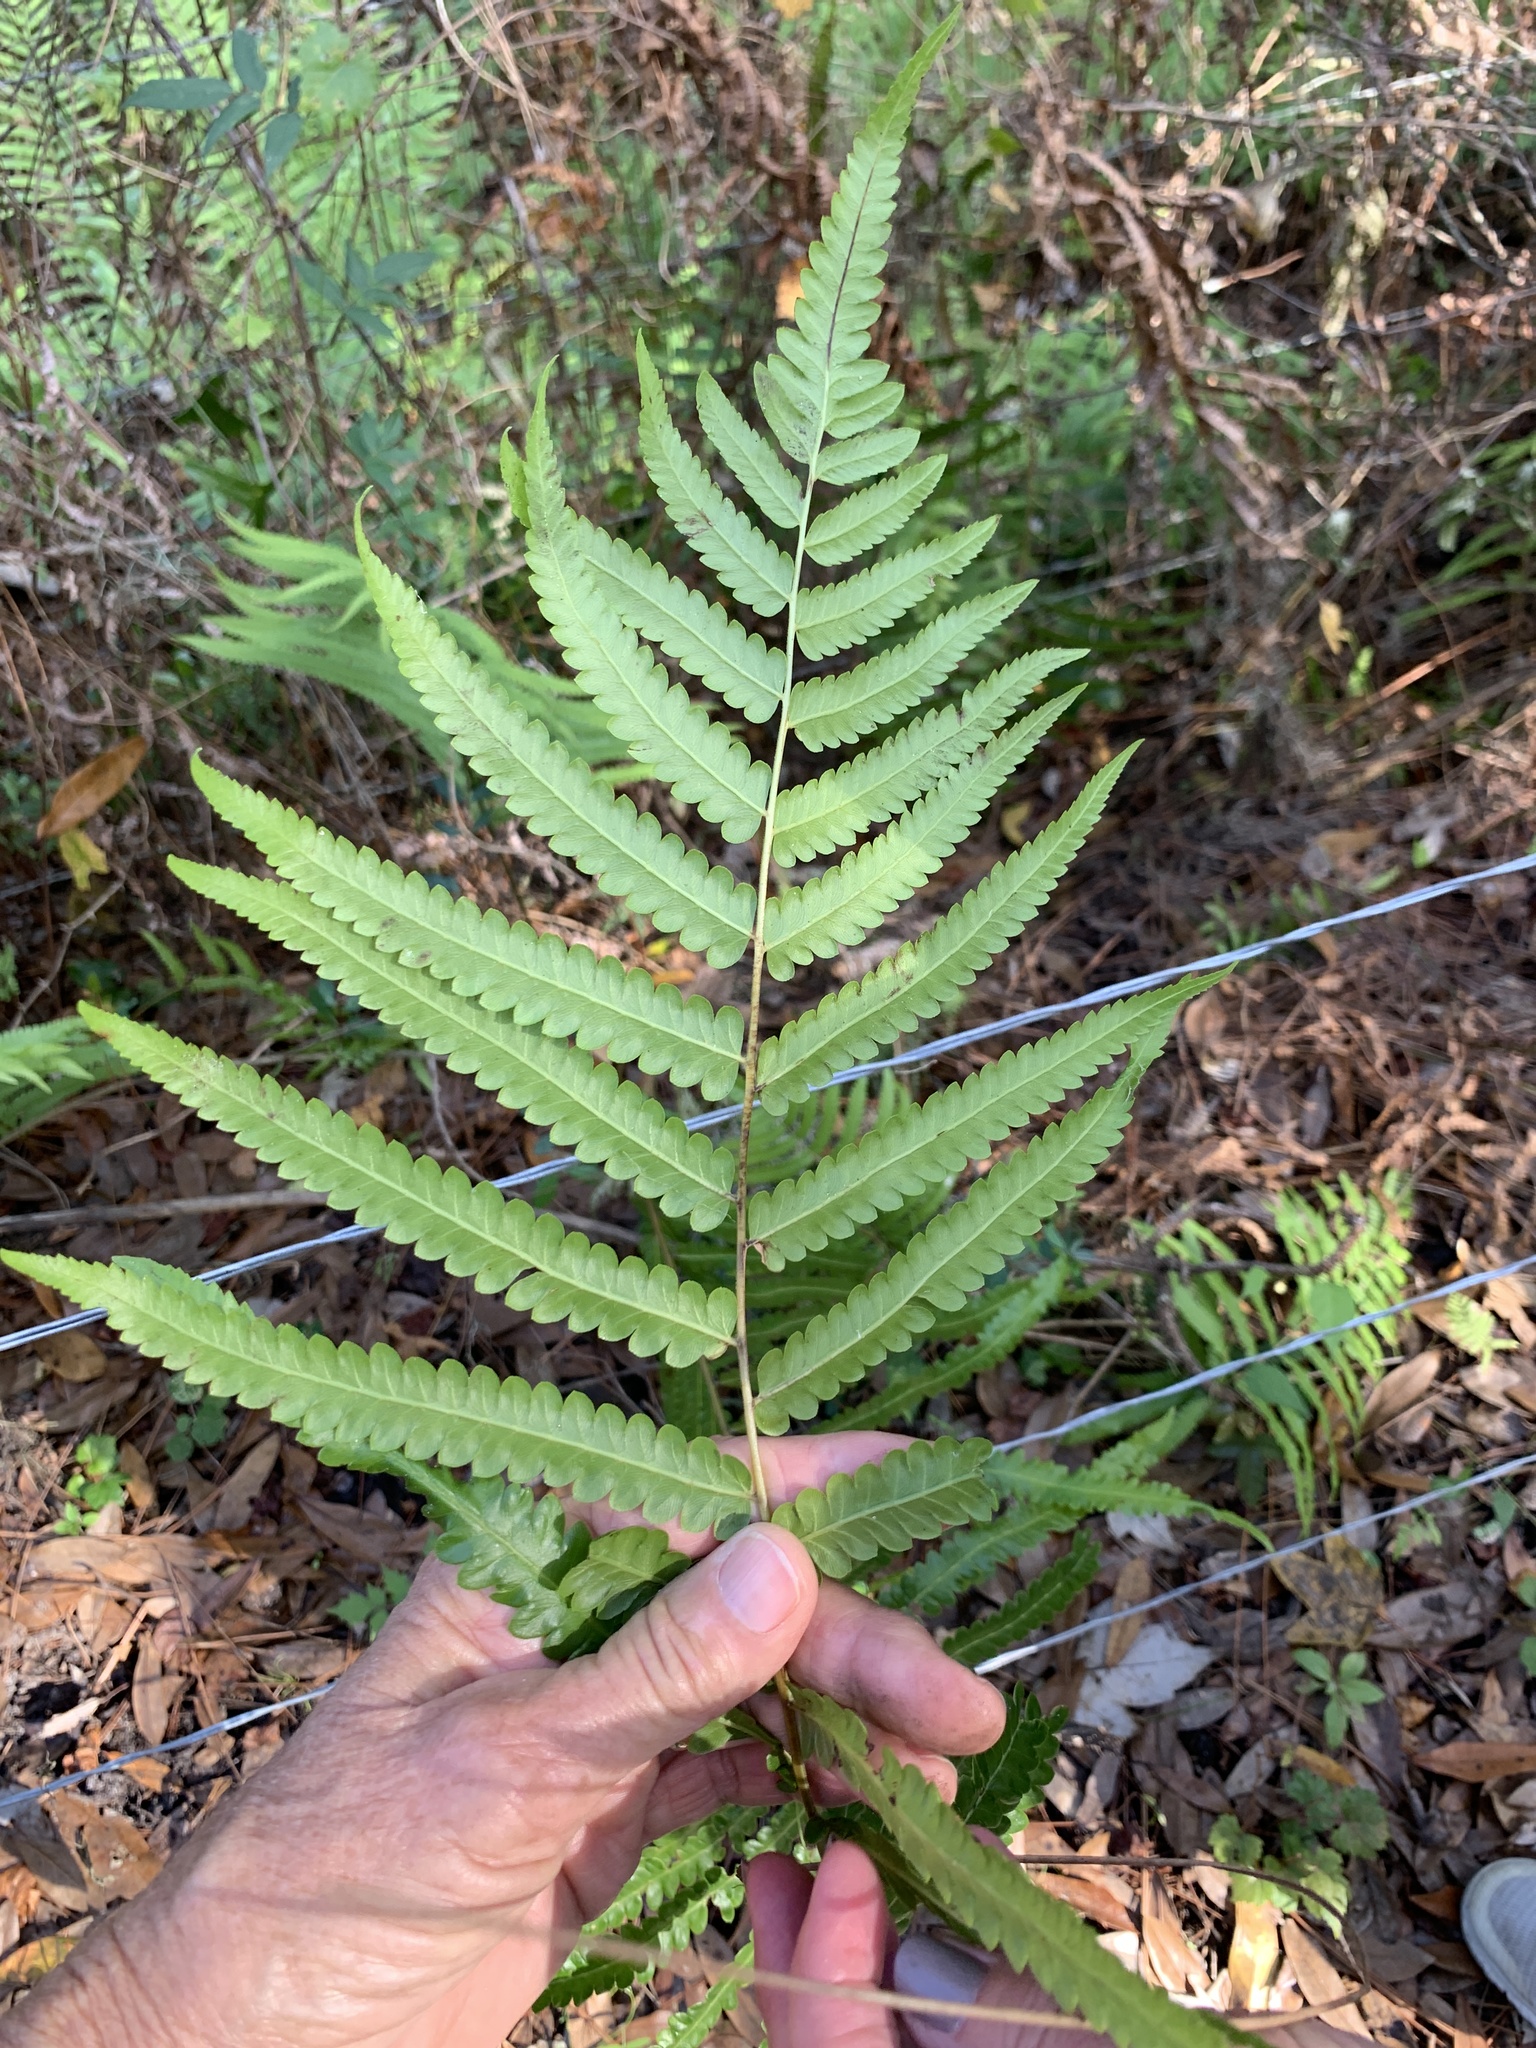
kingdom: Plantae
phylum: Tracheophyta
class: Polypodiopsida
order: Polypodiales
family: Thelypteridaceae
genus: Cyclosorus
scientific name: Cyclosorus interruptus
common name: Neke fern
